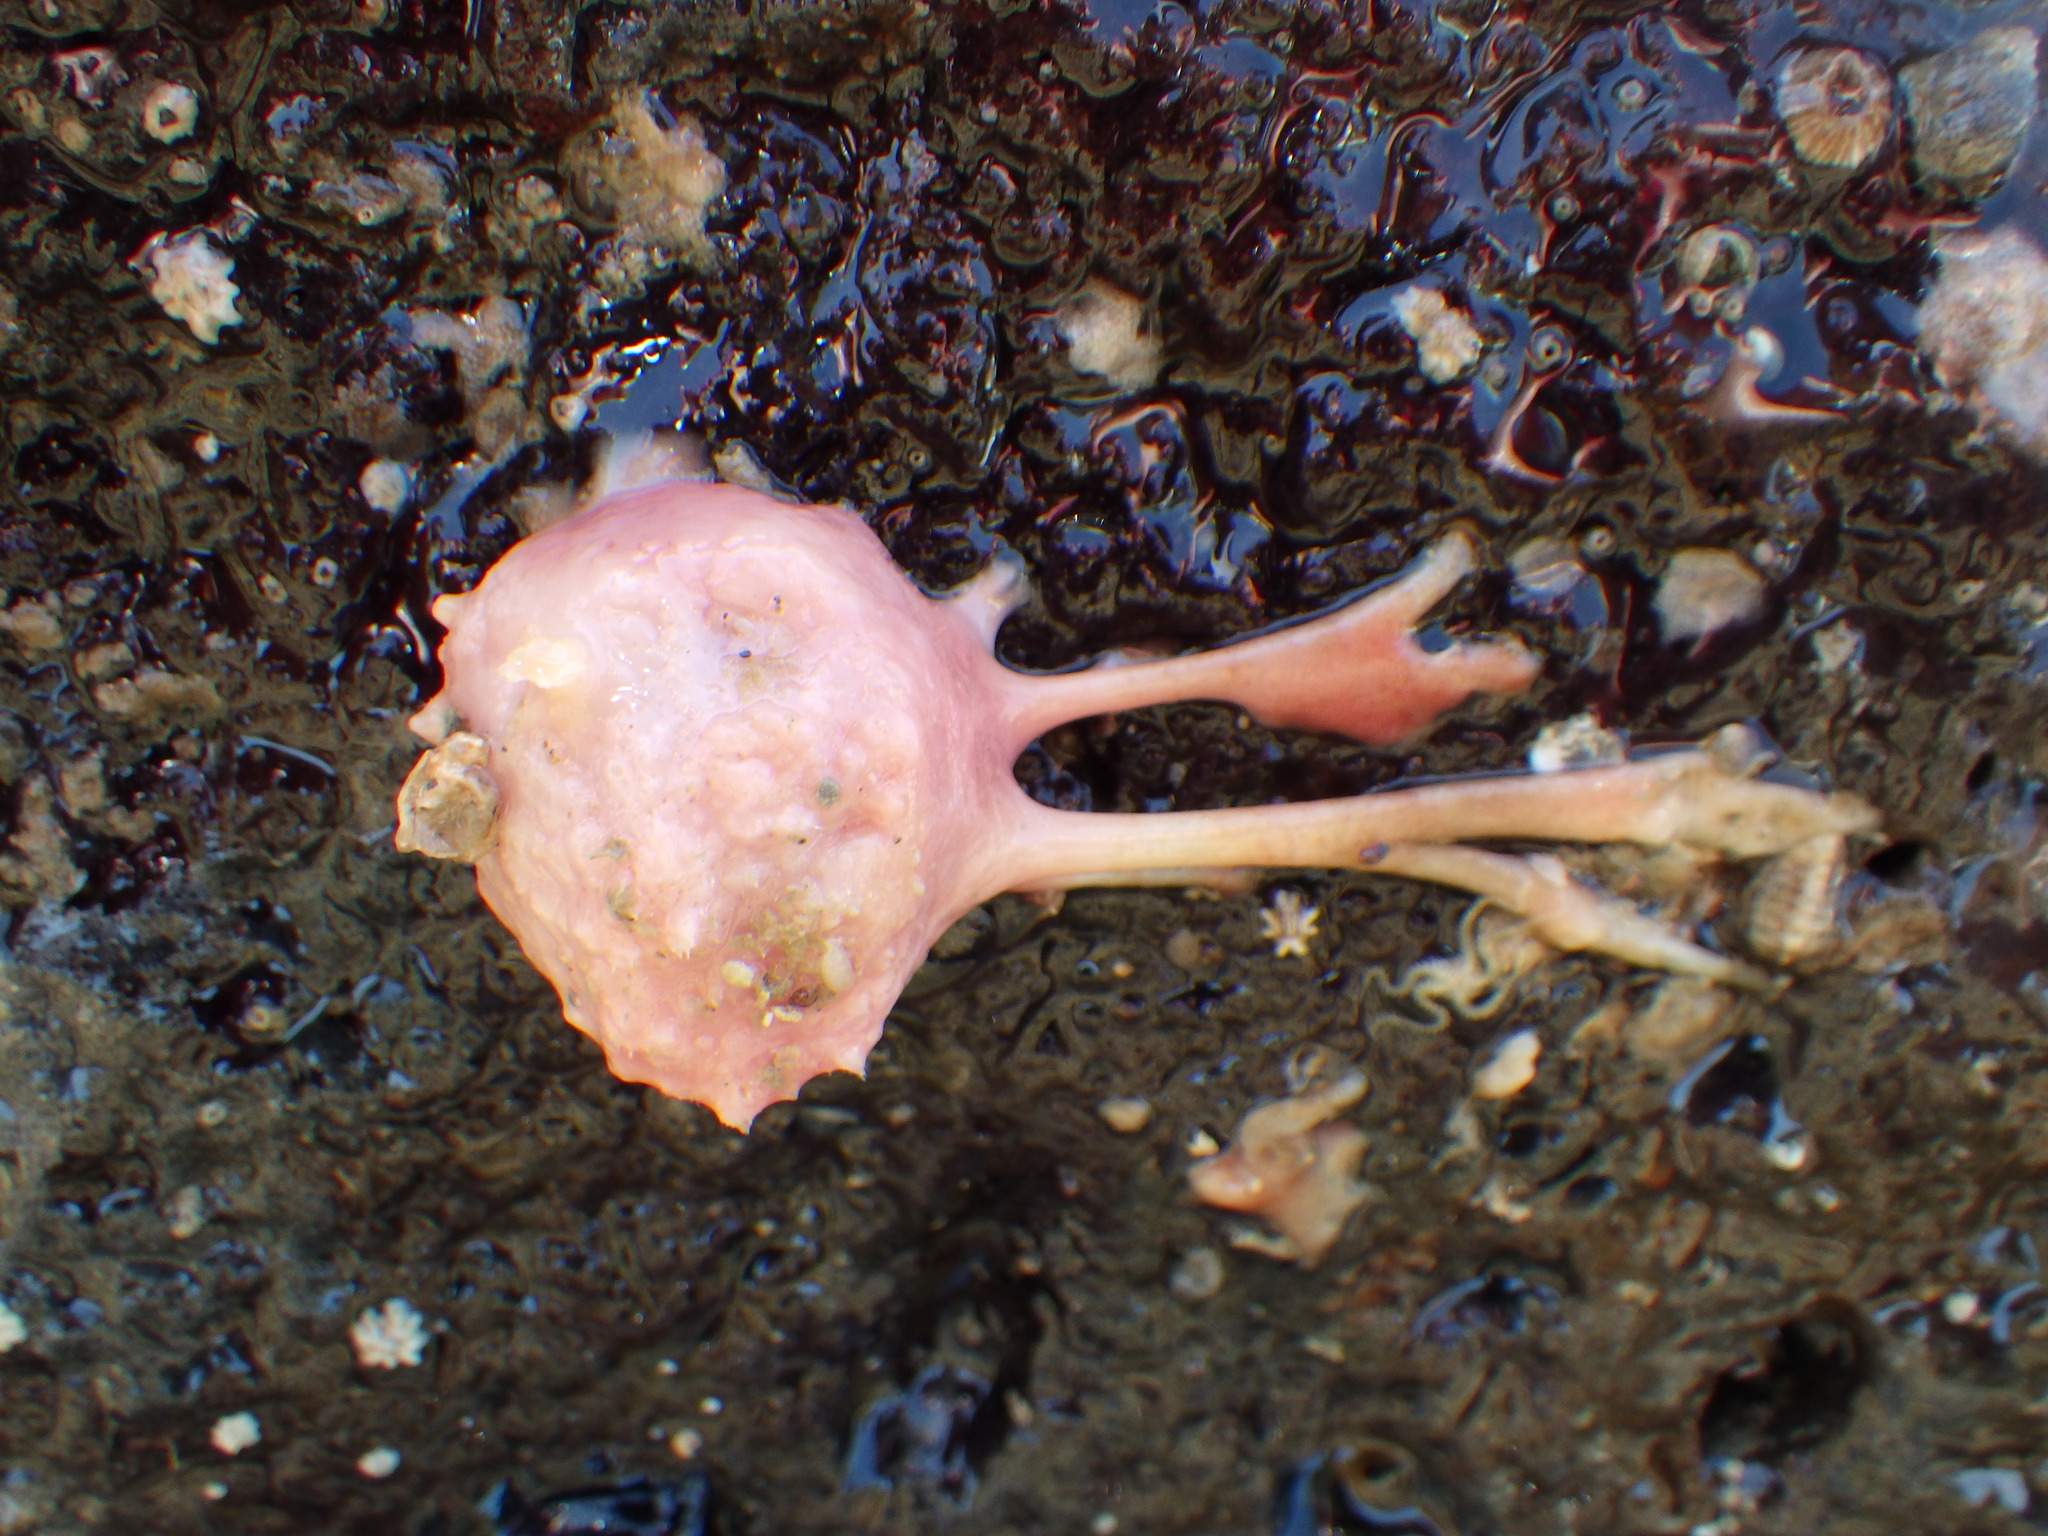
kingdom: Animalia
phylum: Porifera
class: Demospongiae
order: Tethyida
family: Tethyidae
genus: Tethya
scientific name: Tethya bergquistae
